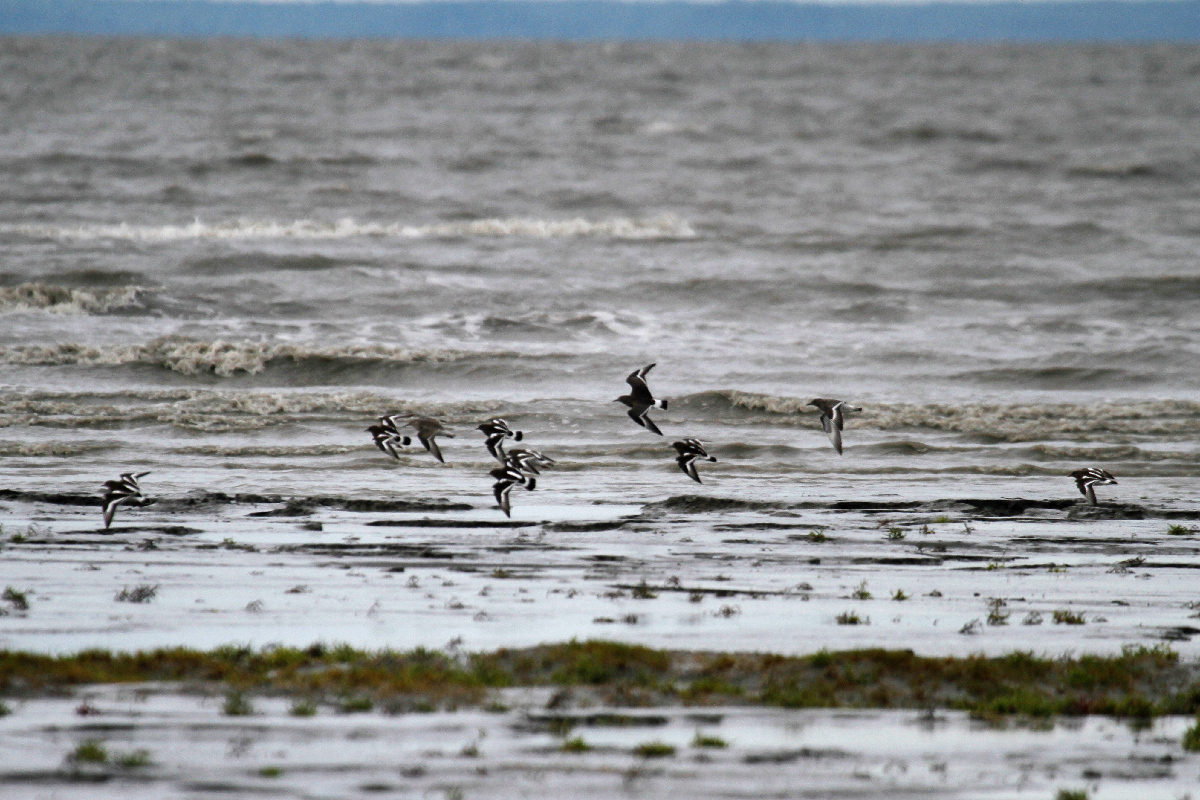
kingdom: Animalia
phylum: Chordata
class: Aves
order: Charadriiformes
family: Scolopacidae
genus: Calidris
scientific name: Calidris virgata
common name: Surfbird
